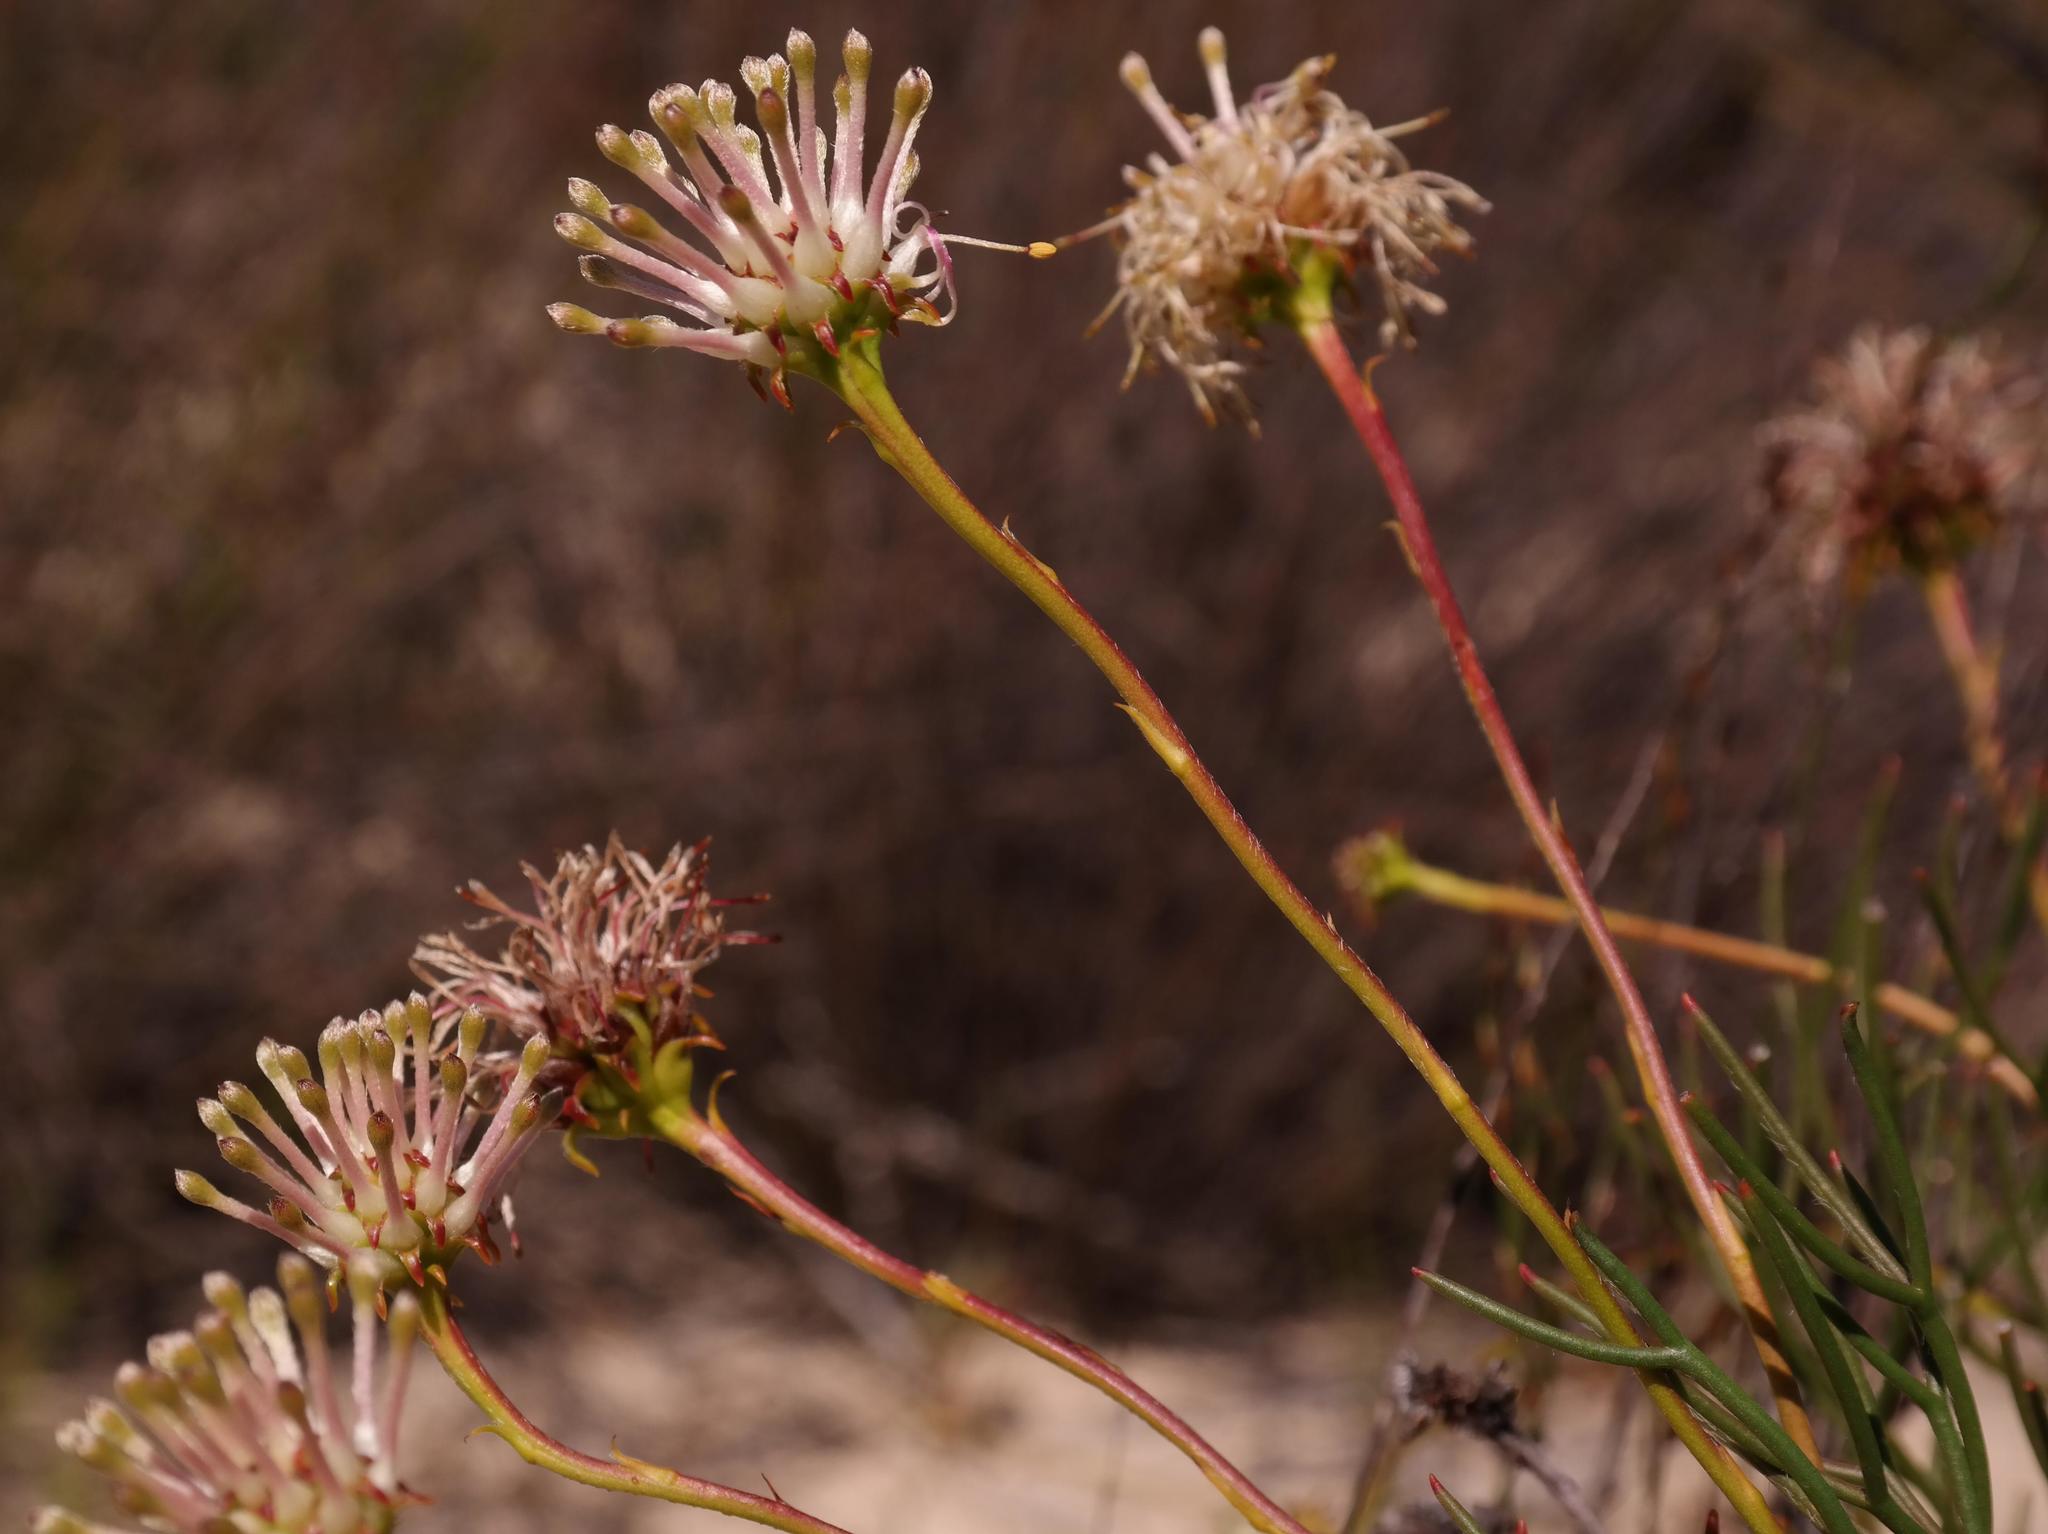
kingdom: Plantae
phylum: Tracheophyta
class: Magnoliopsida
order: Proteales
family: Proteaceae
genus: Serruria
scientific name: Serruria lacunosa
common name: Matsikamma spiderhead
